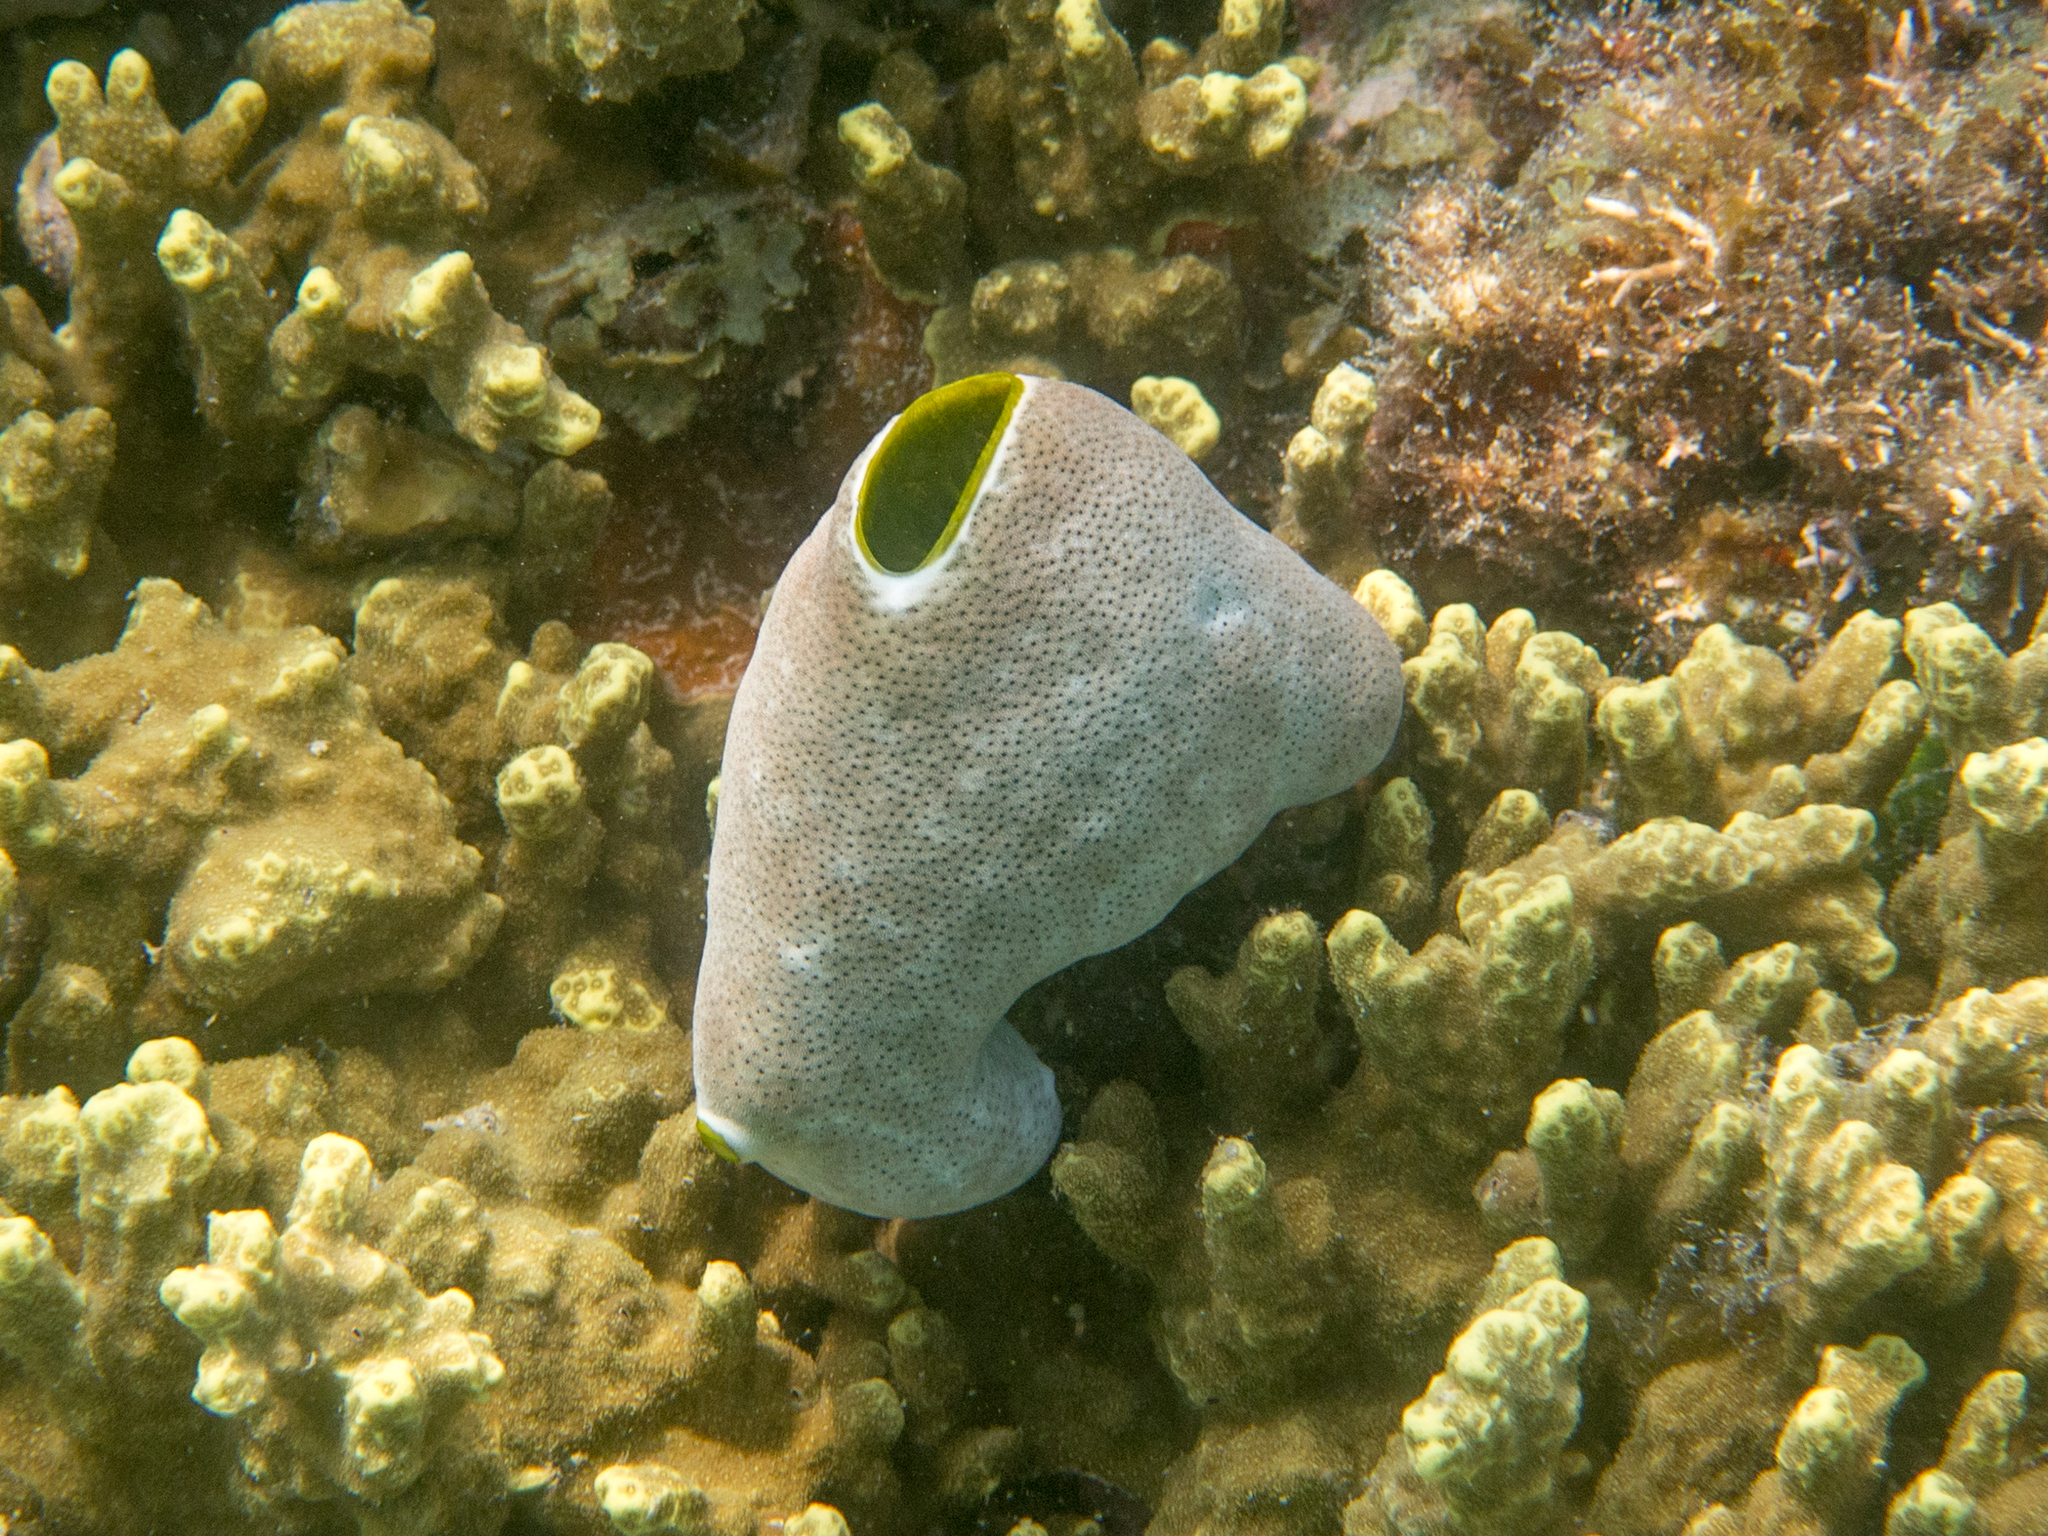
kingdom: Animalia
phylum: Chordata
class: Ascidiacea
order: Aplousobranchia
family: Didemnidae
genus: Didemnum
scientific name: Didemnum molle
